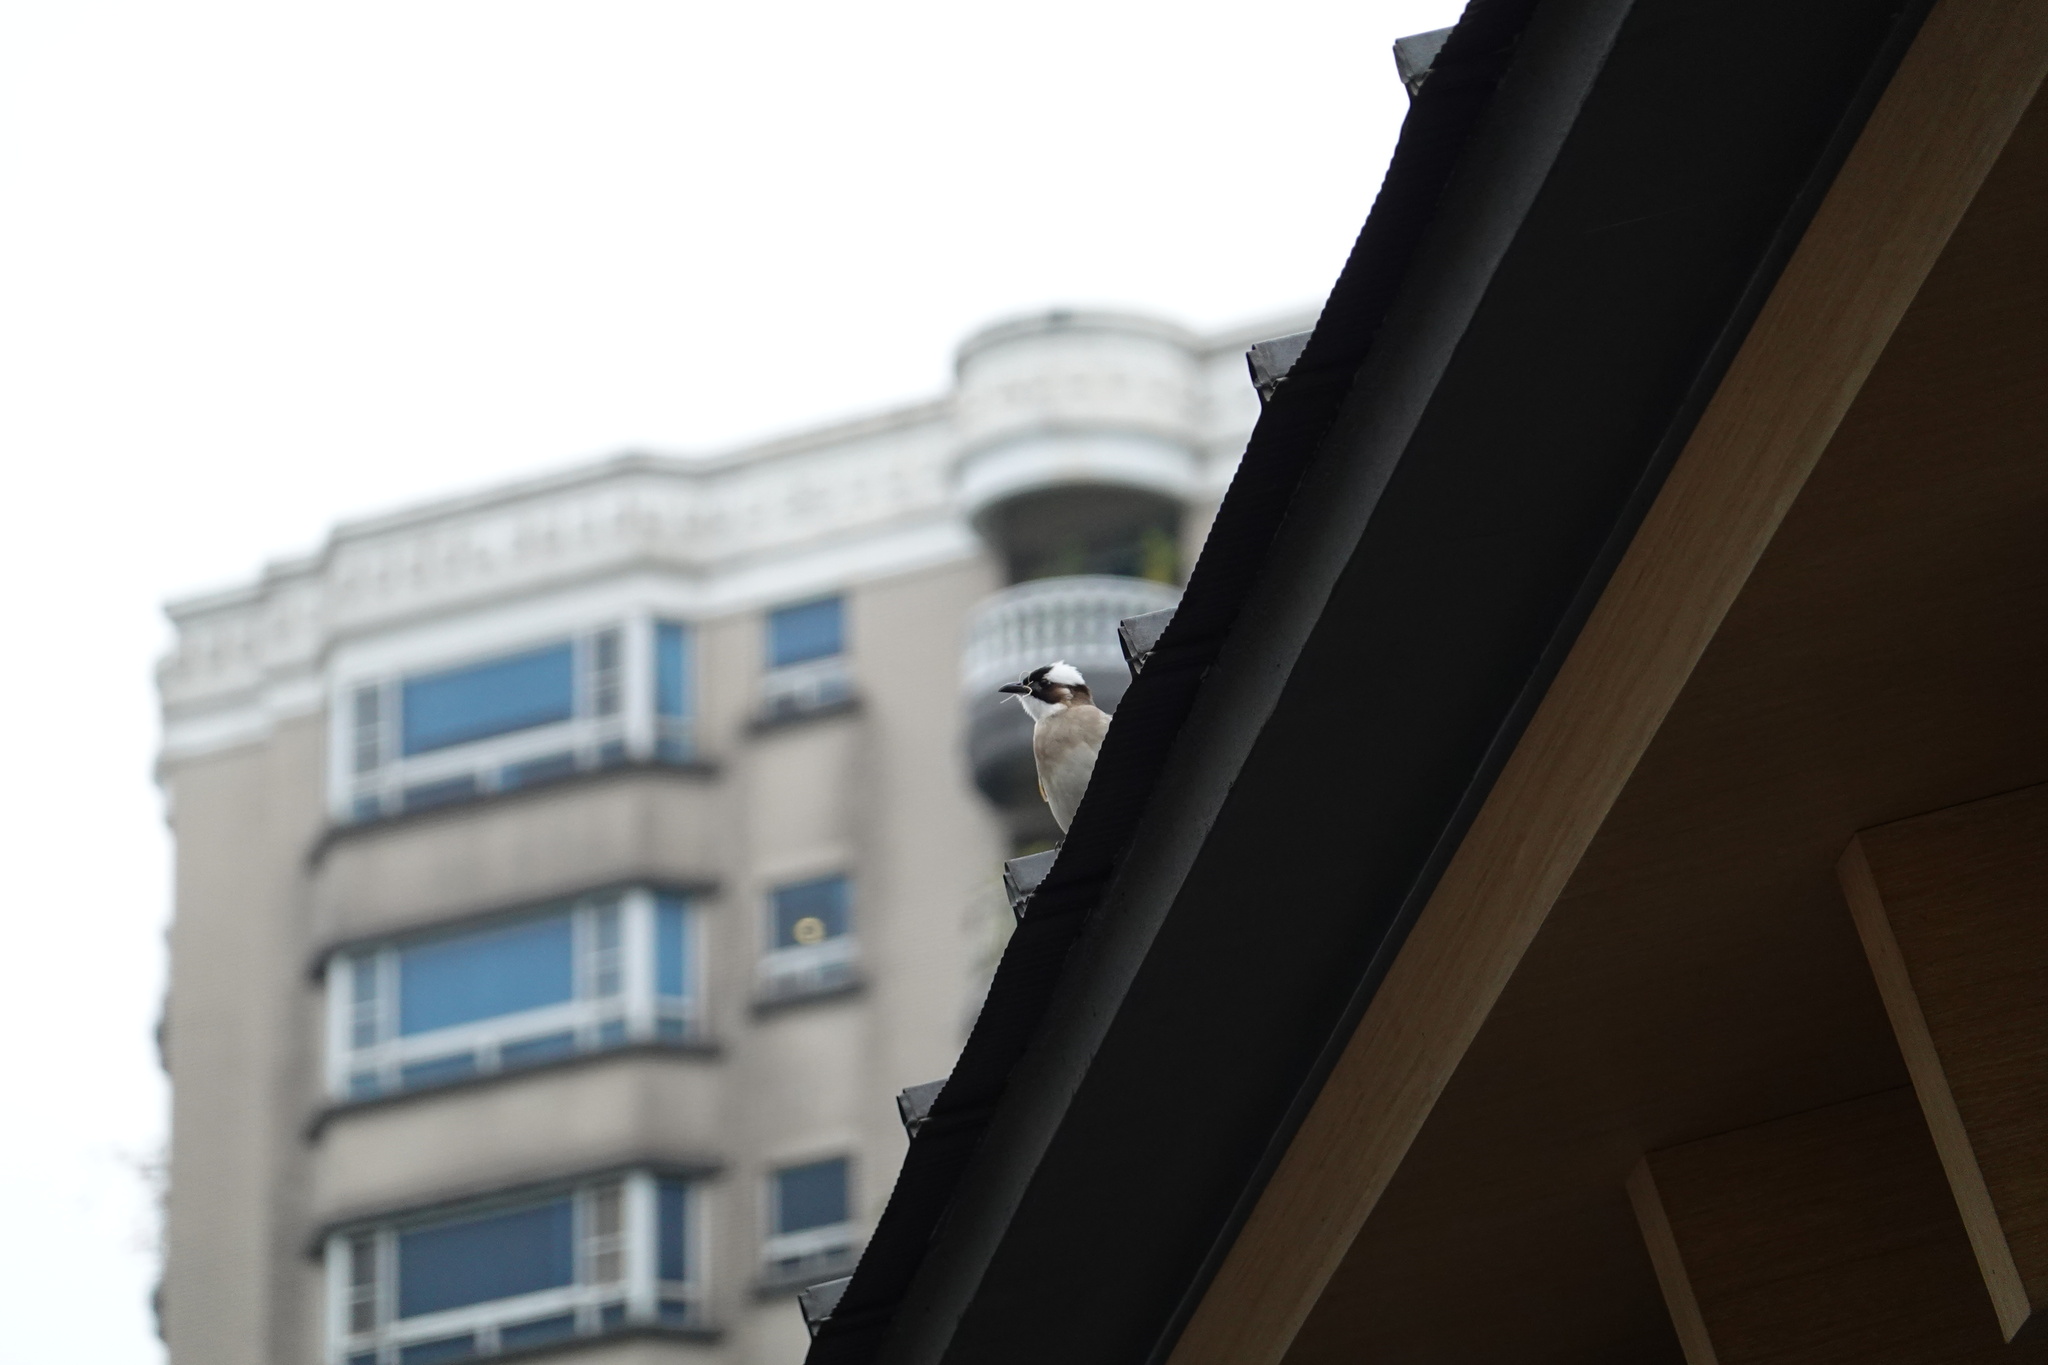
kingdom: Animalia
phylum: Chordata
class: Aves
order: Passeriformes
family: Pycnonotidae
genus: Pycnonotus
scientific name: Pycnonotus sinensis
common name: Light-vented bulbul
